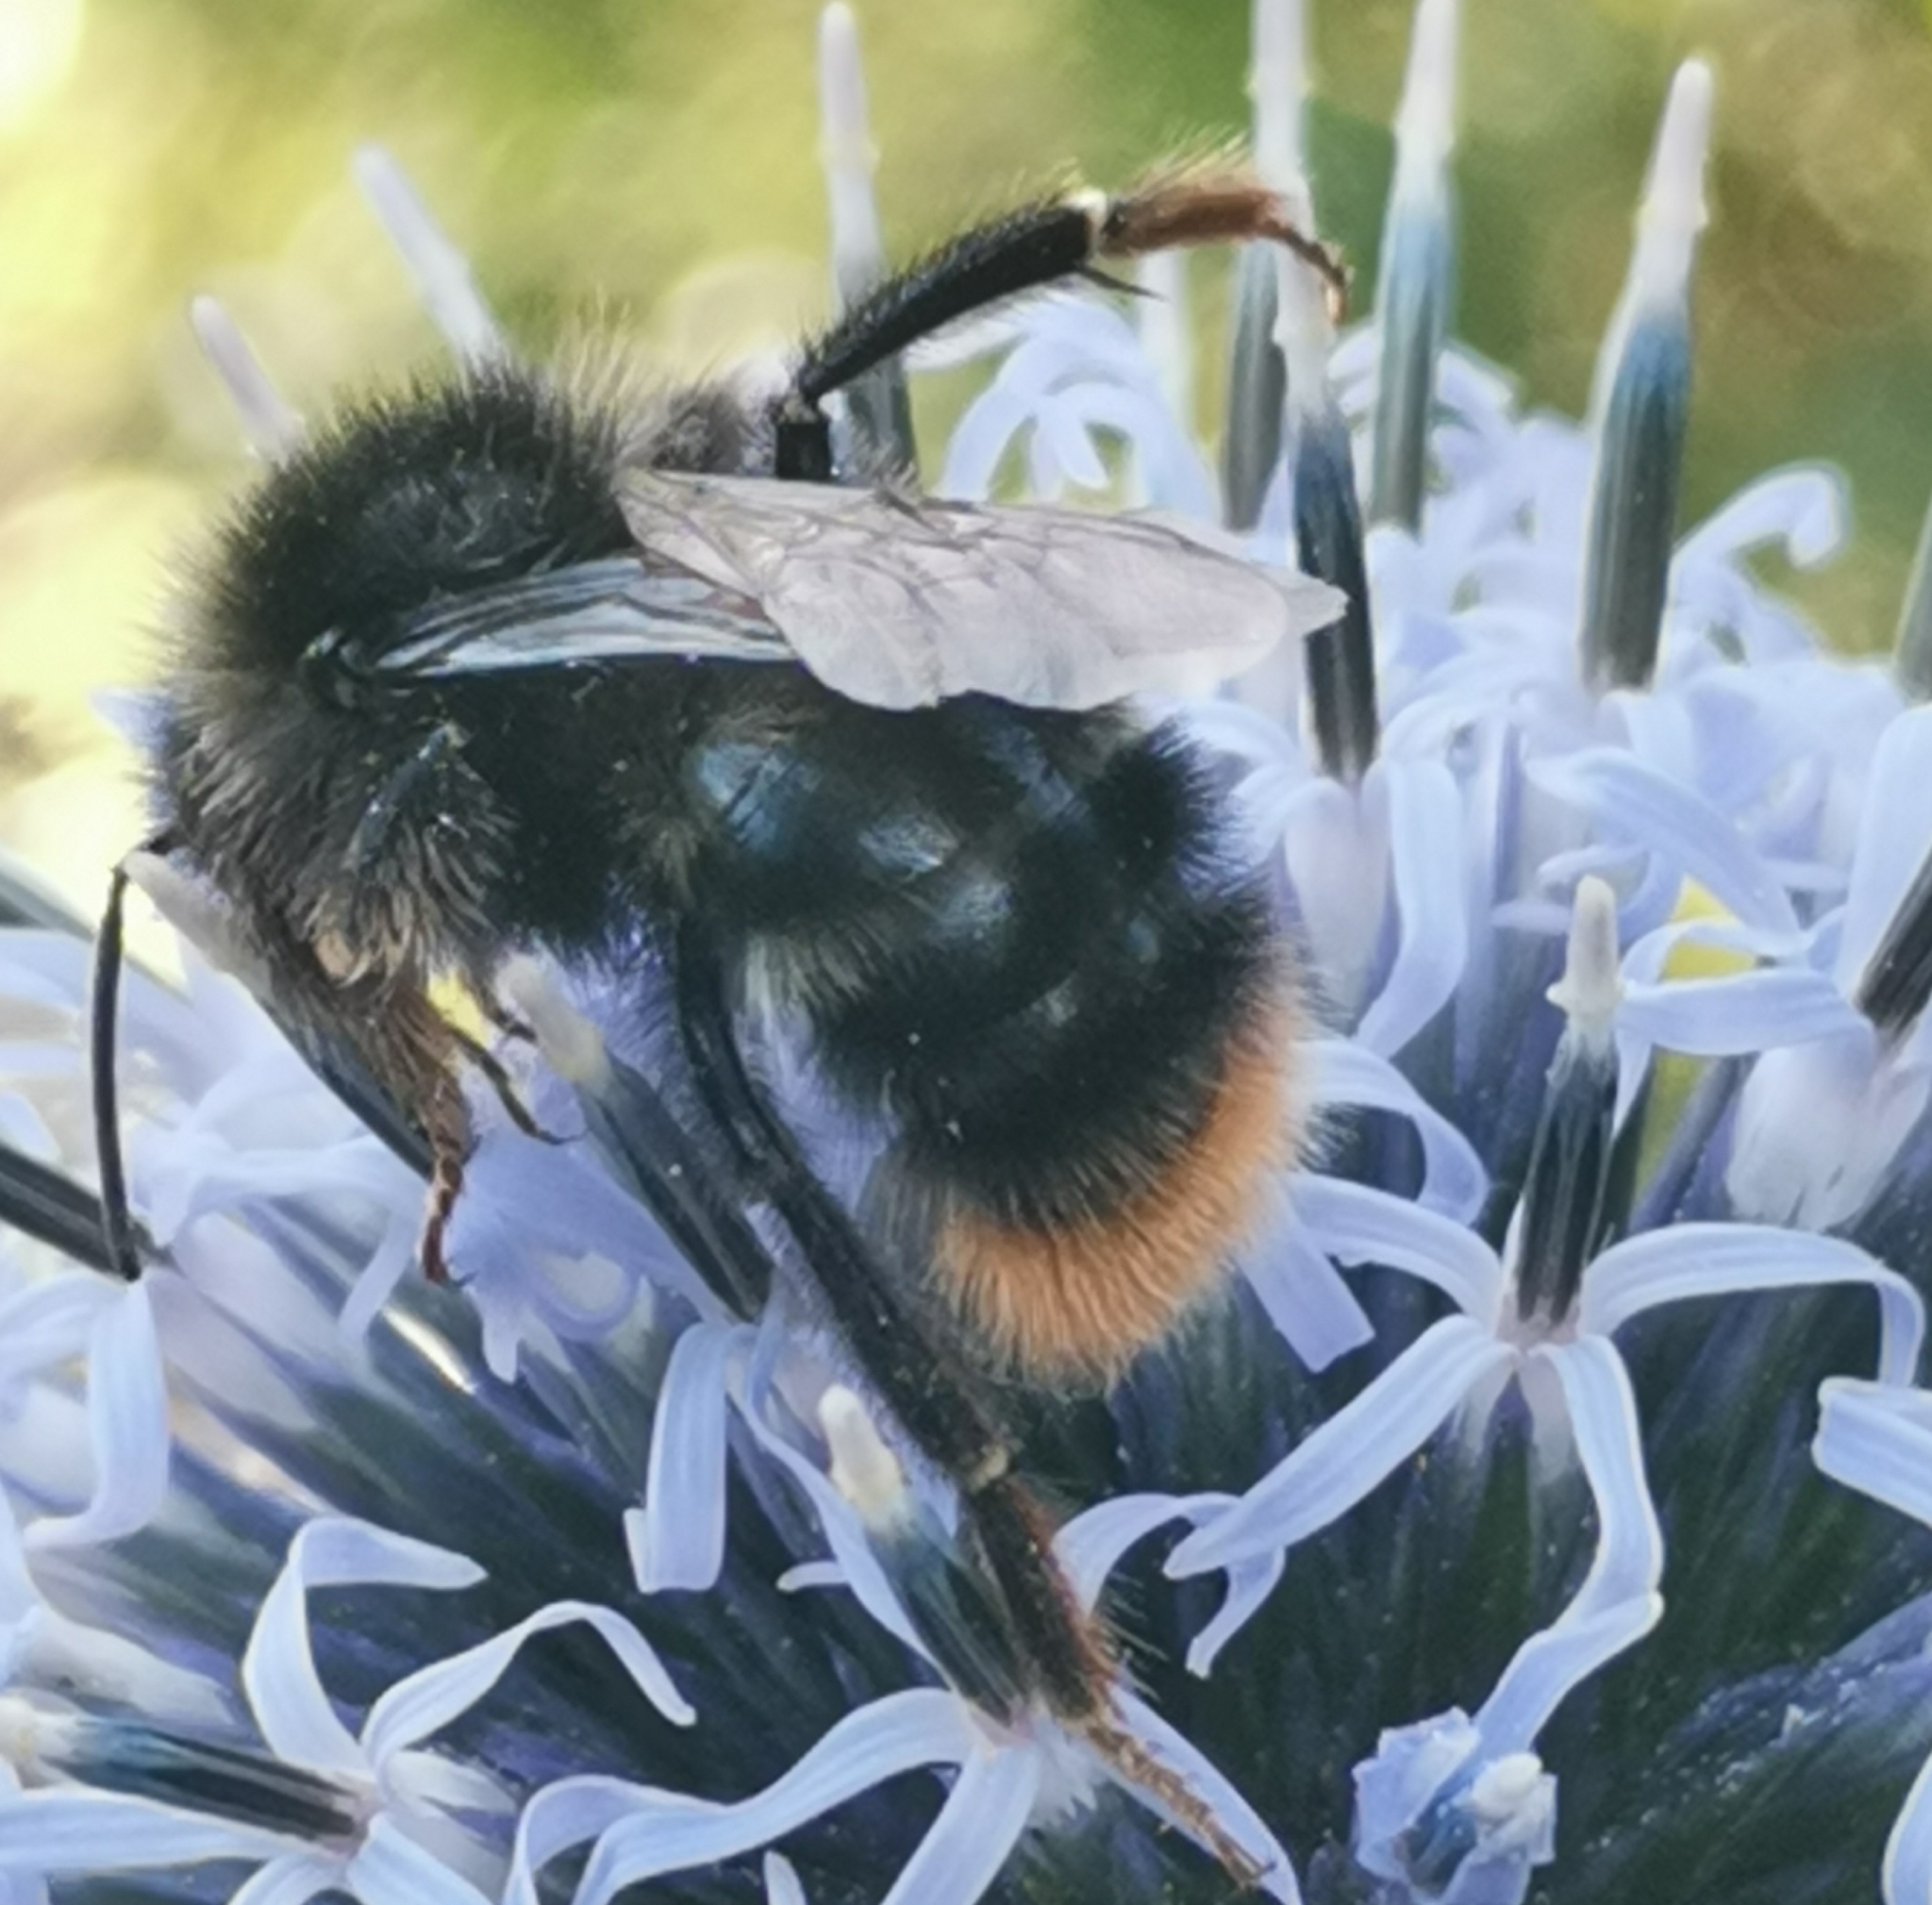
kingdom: Animalia
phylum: Arthropoda
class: Insecta
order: Hymenoptera
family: Apidae
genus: Bombus
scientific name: Bombus rupestris
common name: Hill cuckoo-bee
